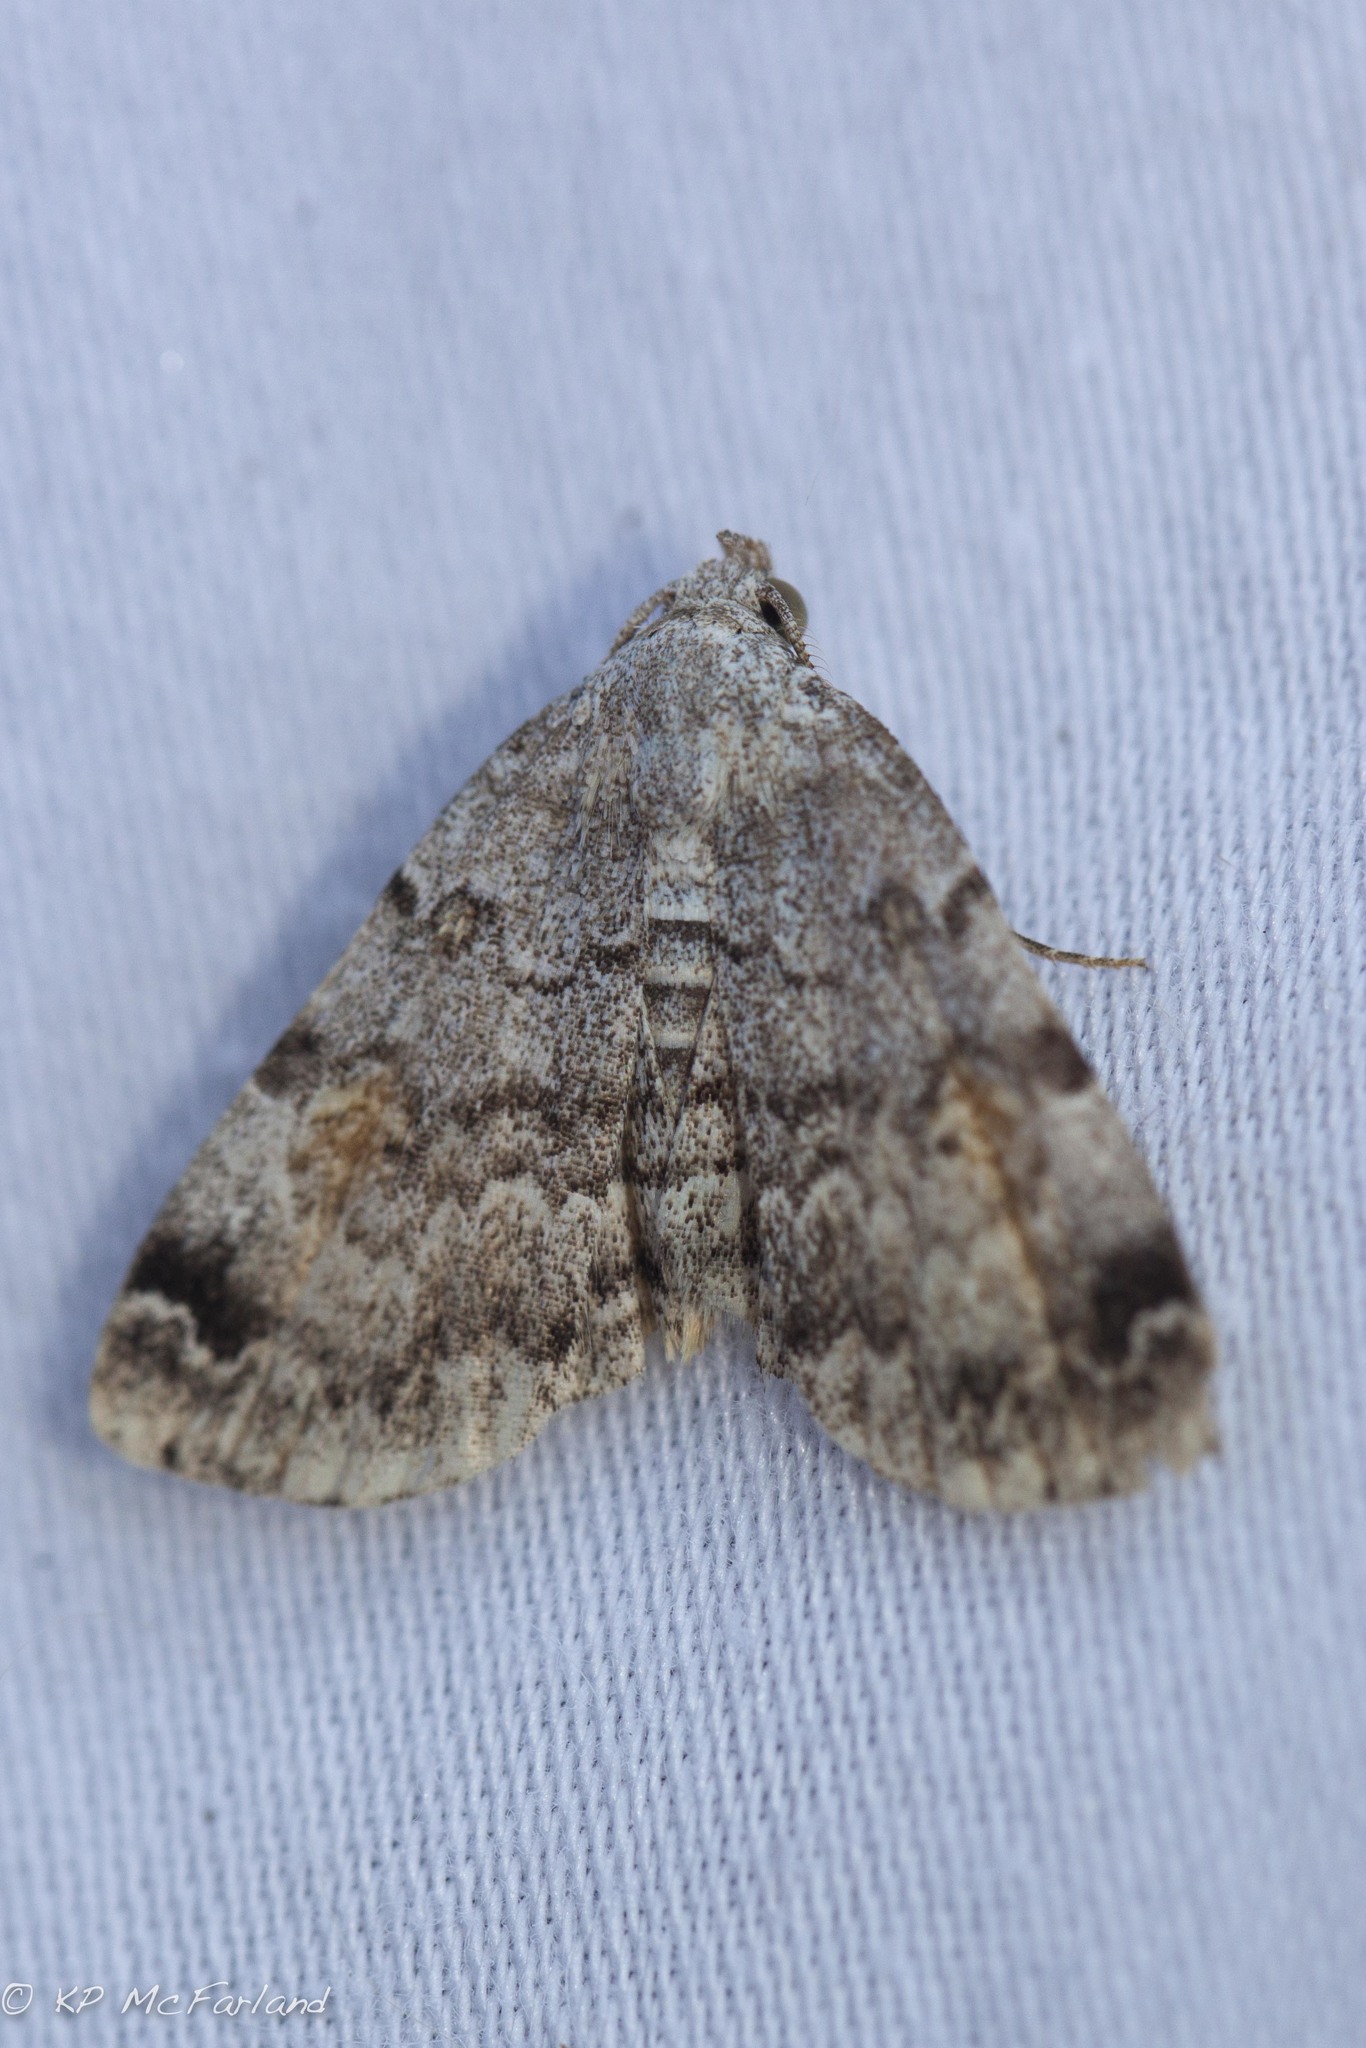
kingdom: Animalia
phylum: Arthropoda
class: Insecta
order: Lepidoptera
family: Erebidae
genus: Idia
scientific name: Idia americalis
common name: American idia moth
